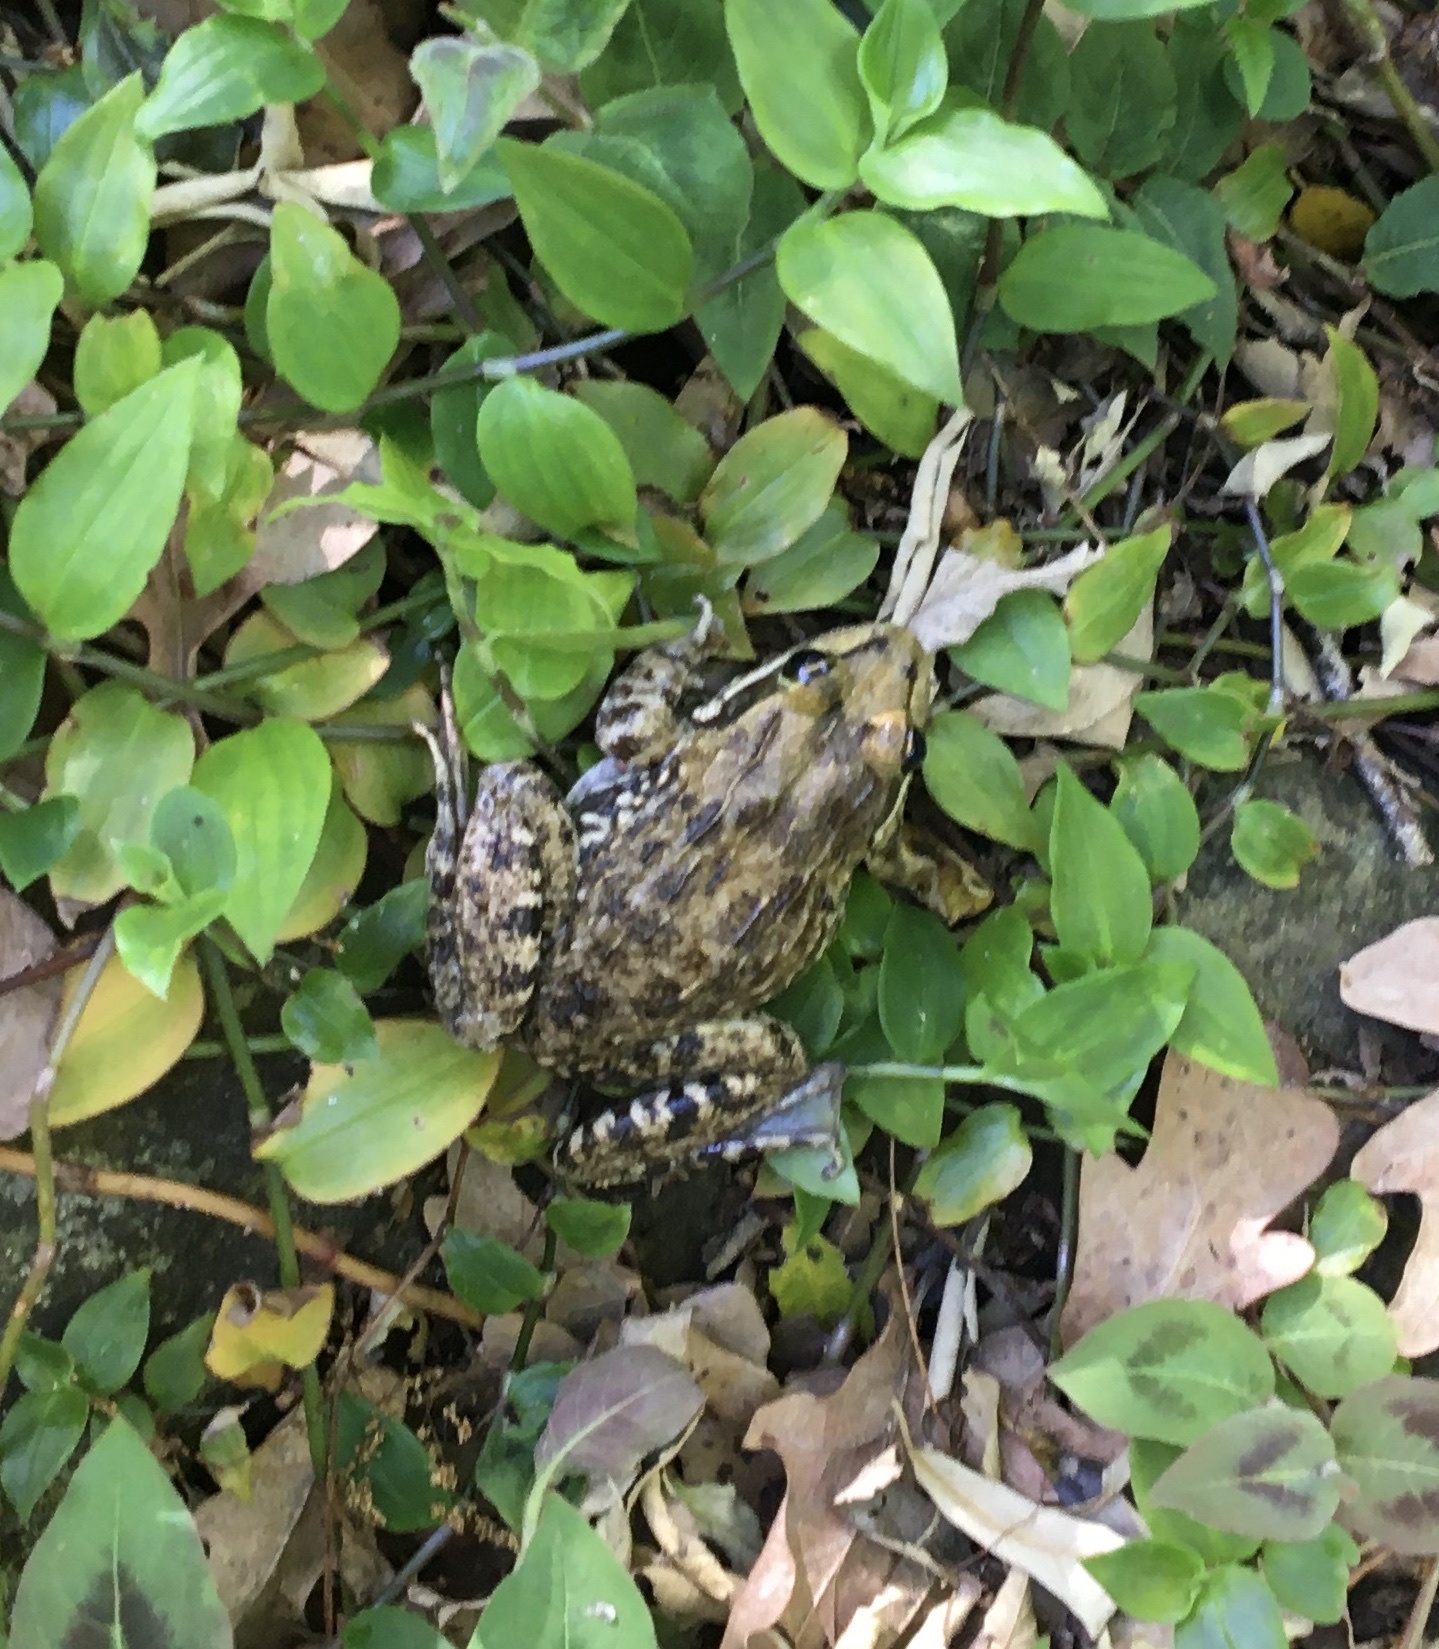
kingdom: Animalia
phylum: Chordata
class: Amphibia
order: Anura
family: Pyxicephalidae
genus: Amietia
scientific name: Amietia fuscigula
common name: Cape rana
